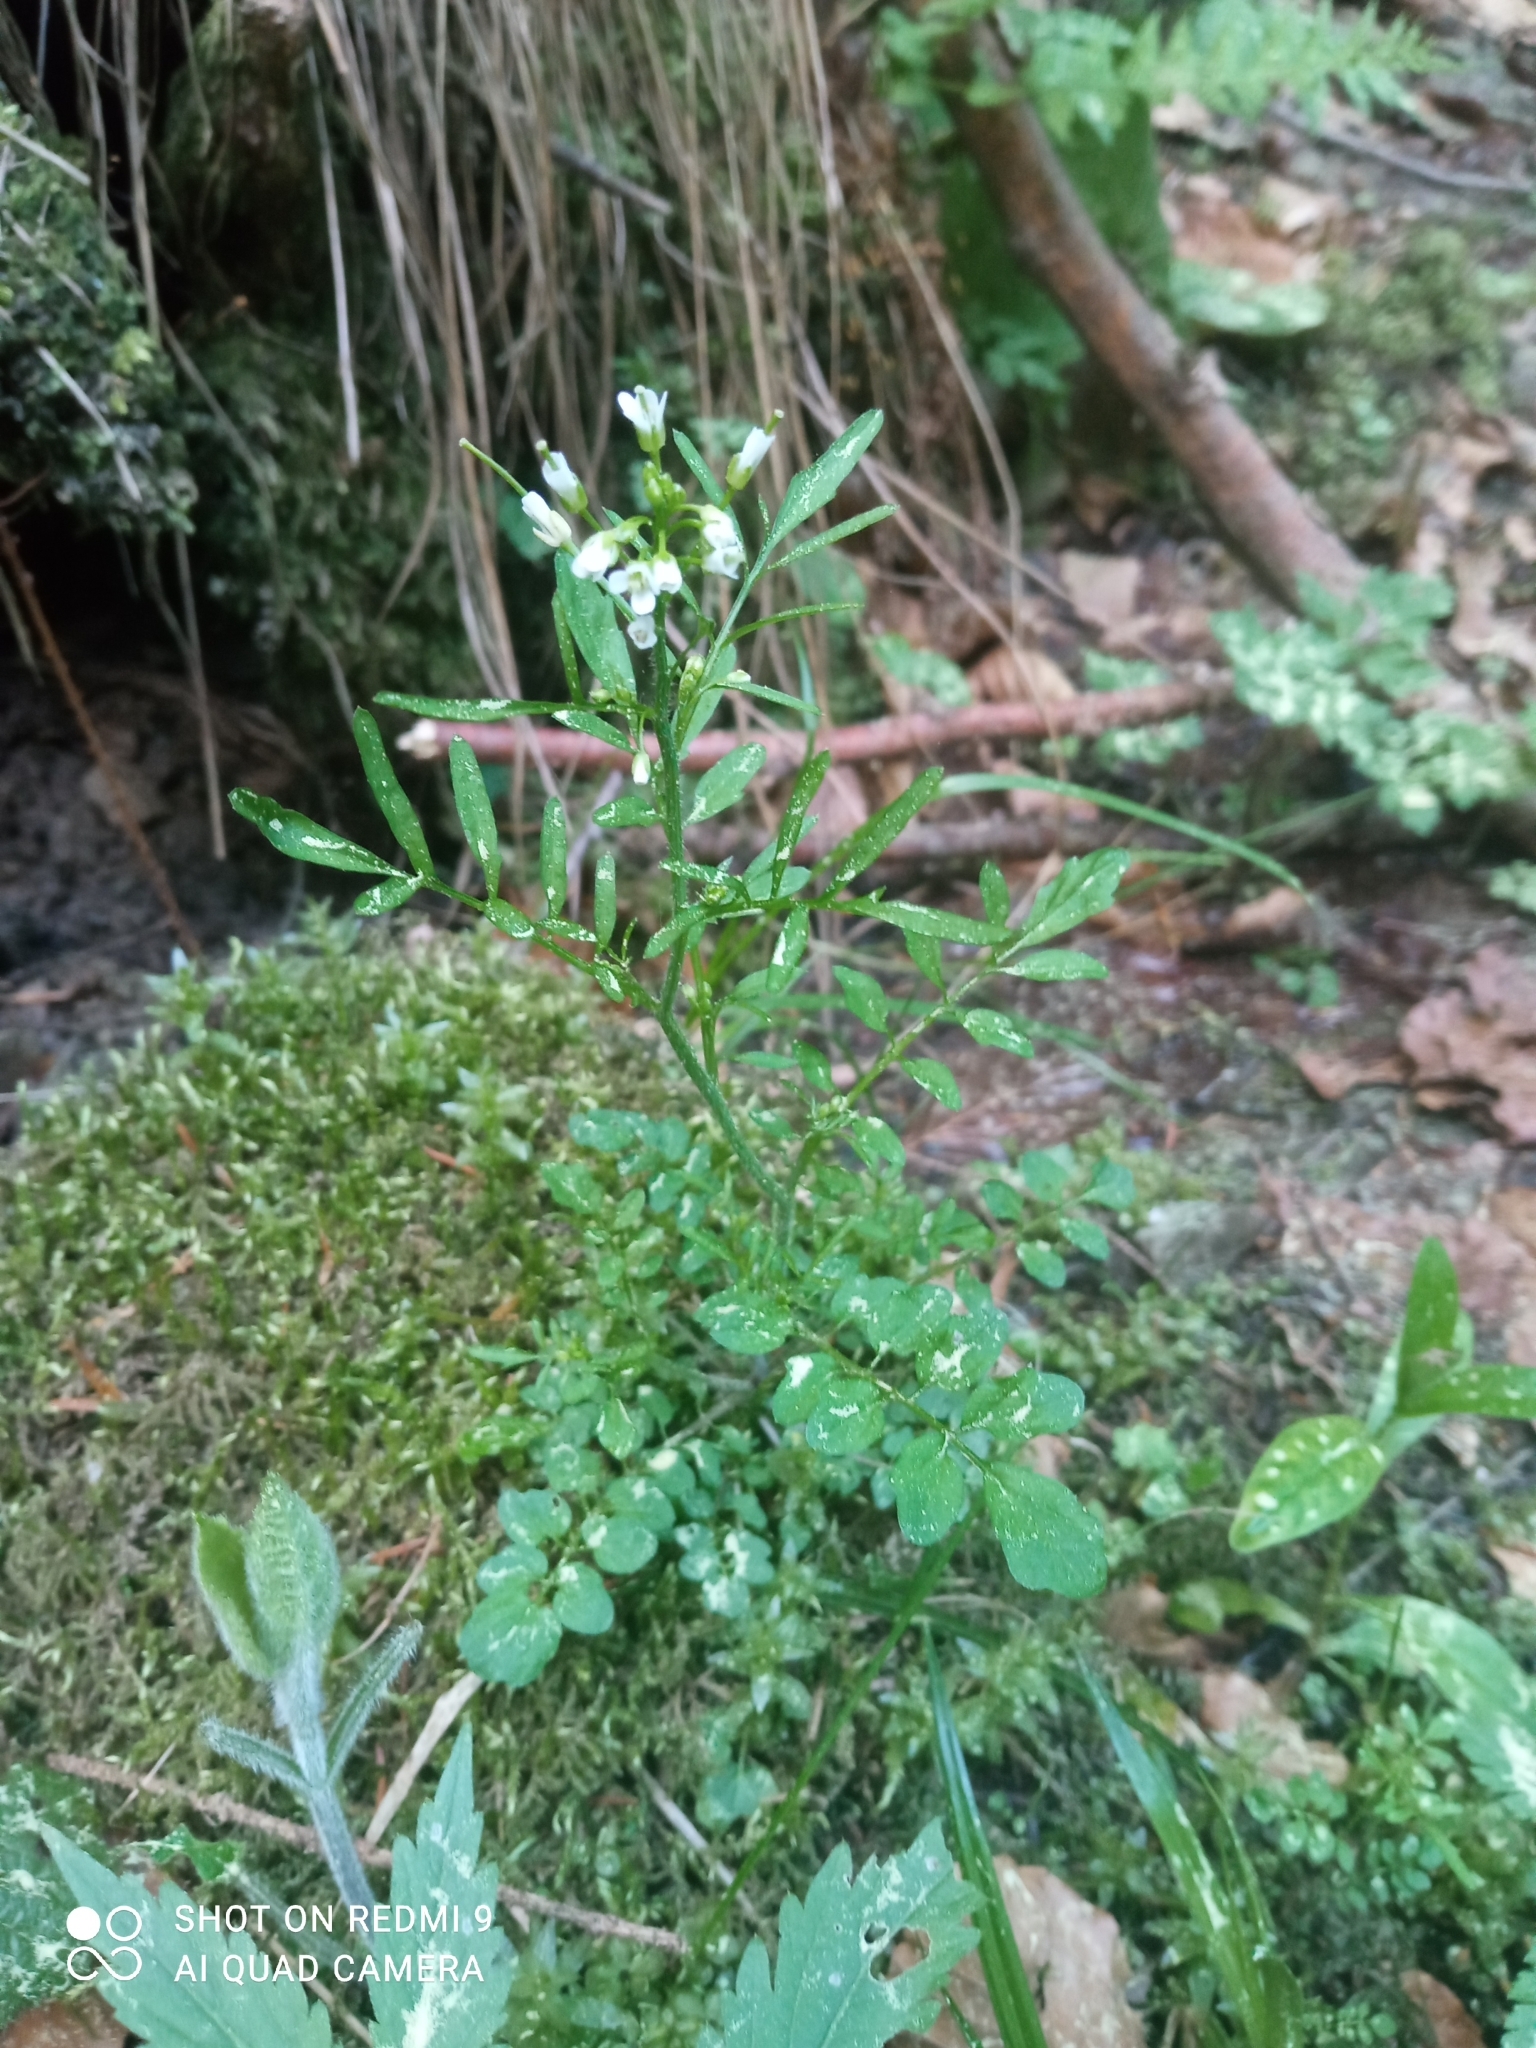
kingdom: Plantae
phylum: Tracheophyta
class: Magnoliopsida
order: Brassicales
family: Brassicaceae
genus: Cardamine
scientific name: Cardamine flexuosa
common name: Woodland bittercress
